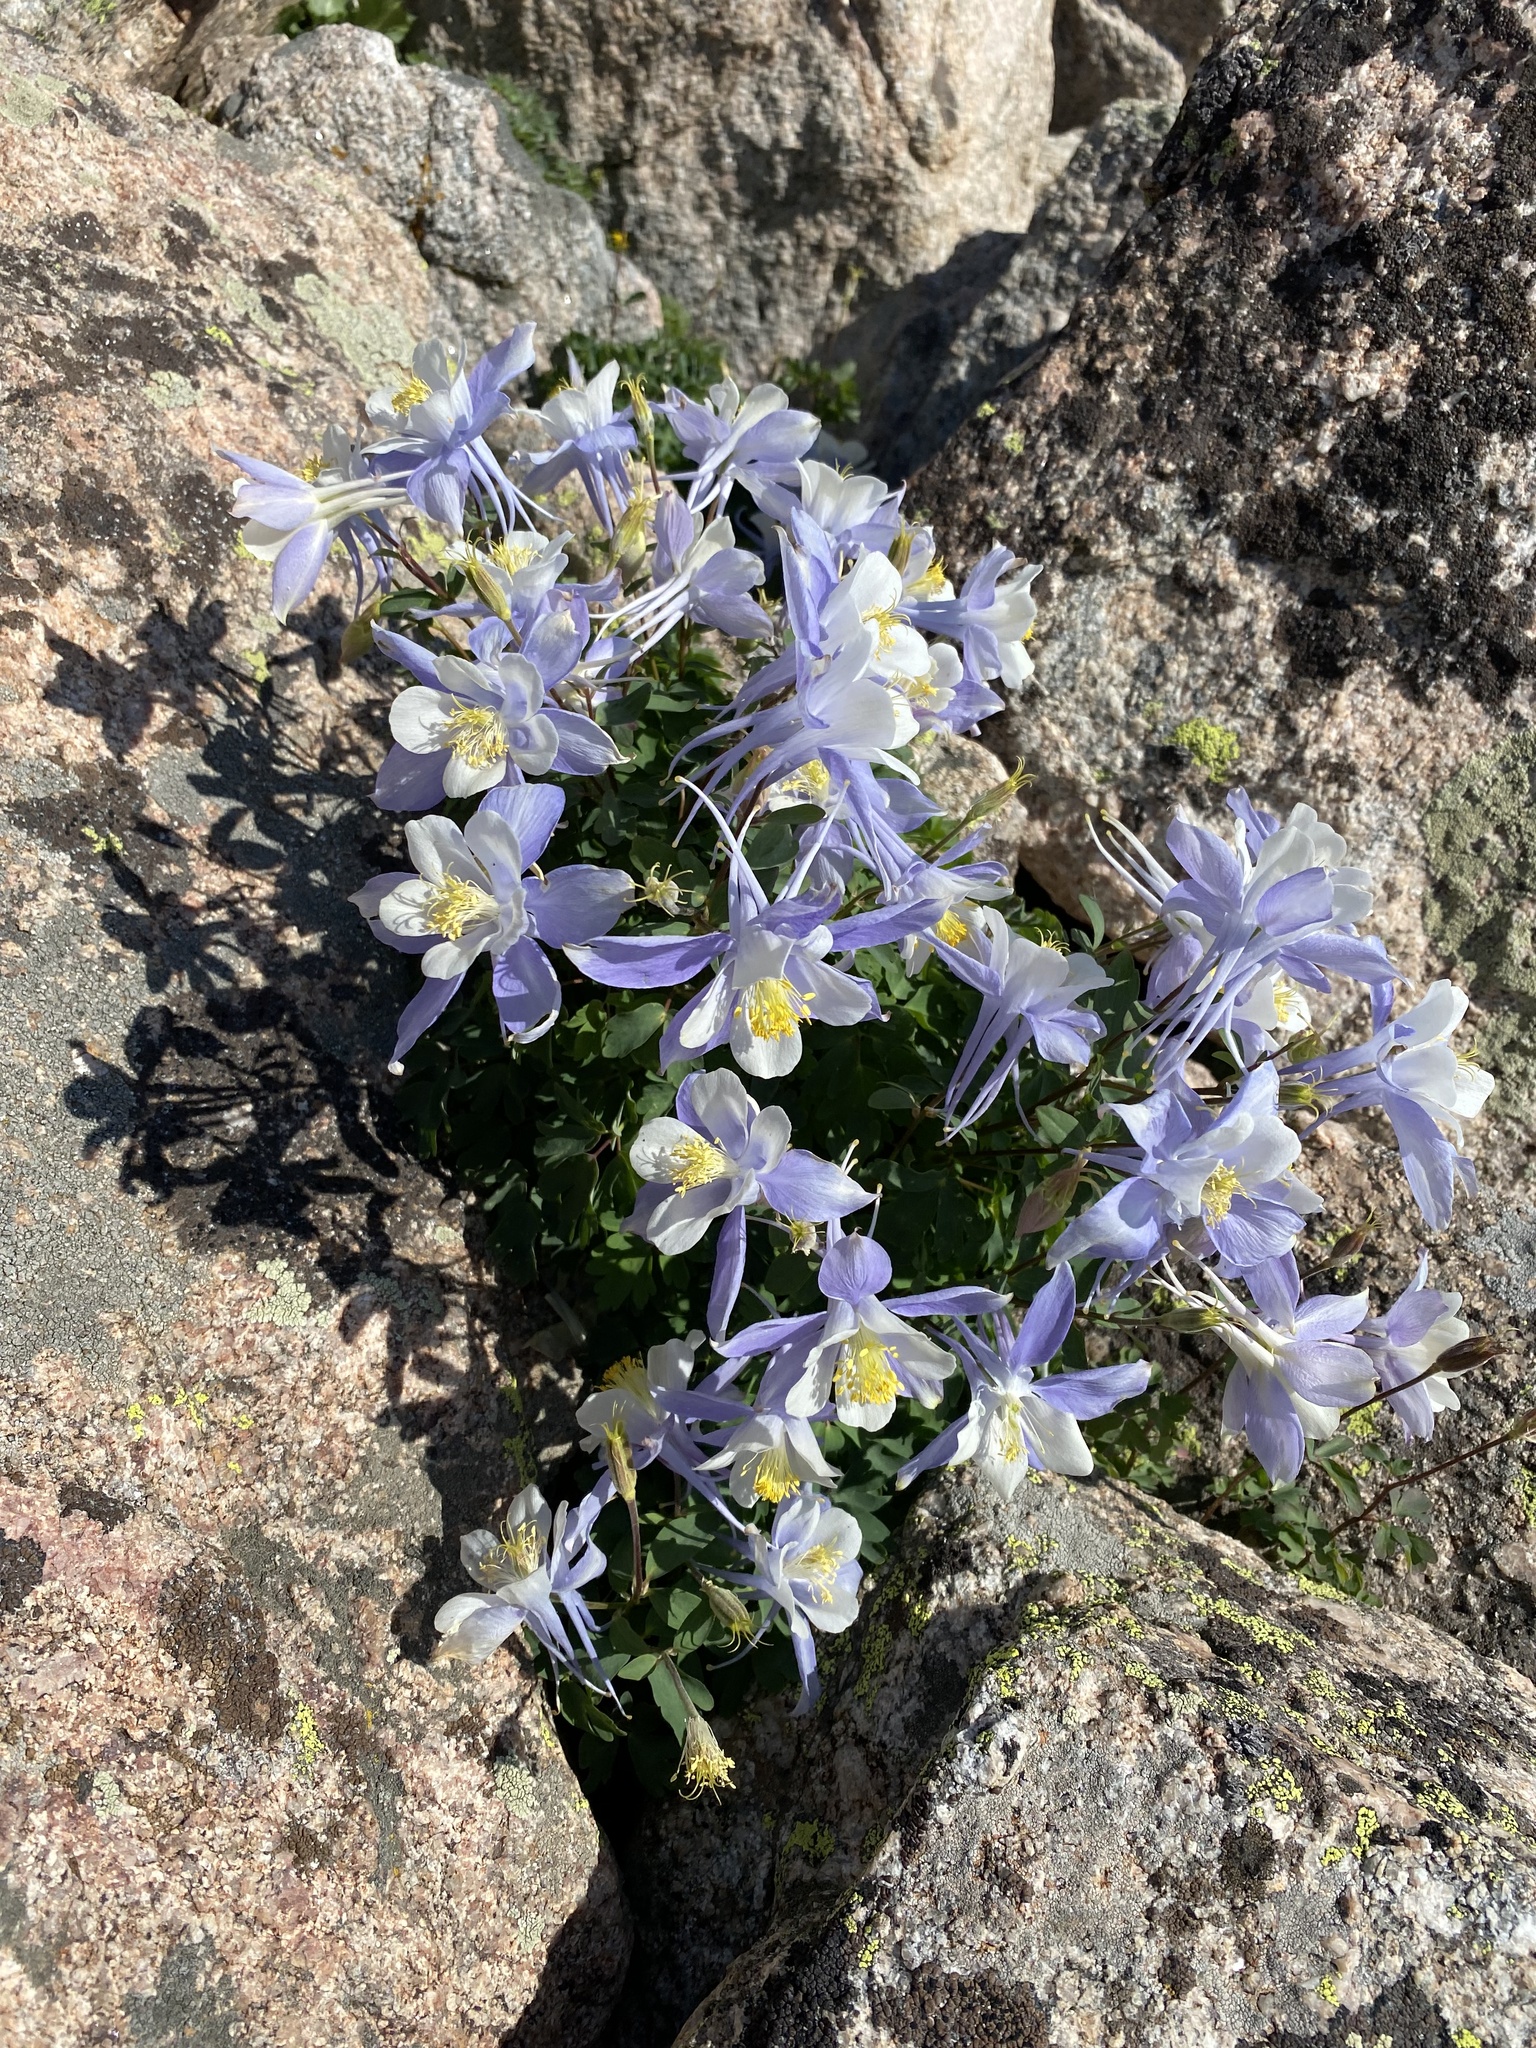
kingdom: Plantae
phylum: Tracheophyta
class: Magnoliopsida
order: Ranunculales
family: Ranunculaceae
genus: Aquilegia
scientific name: Aquilegia coerulea
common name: Rocky mountain columbine
